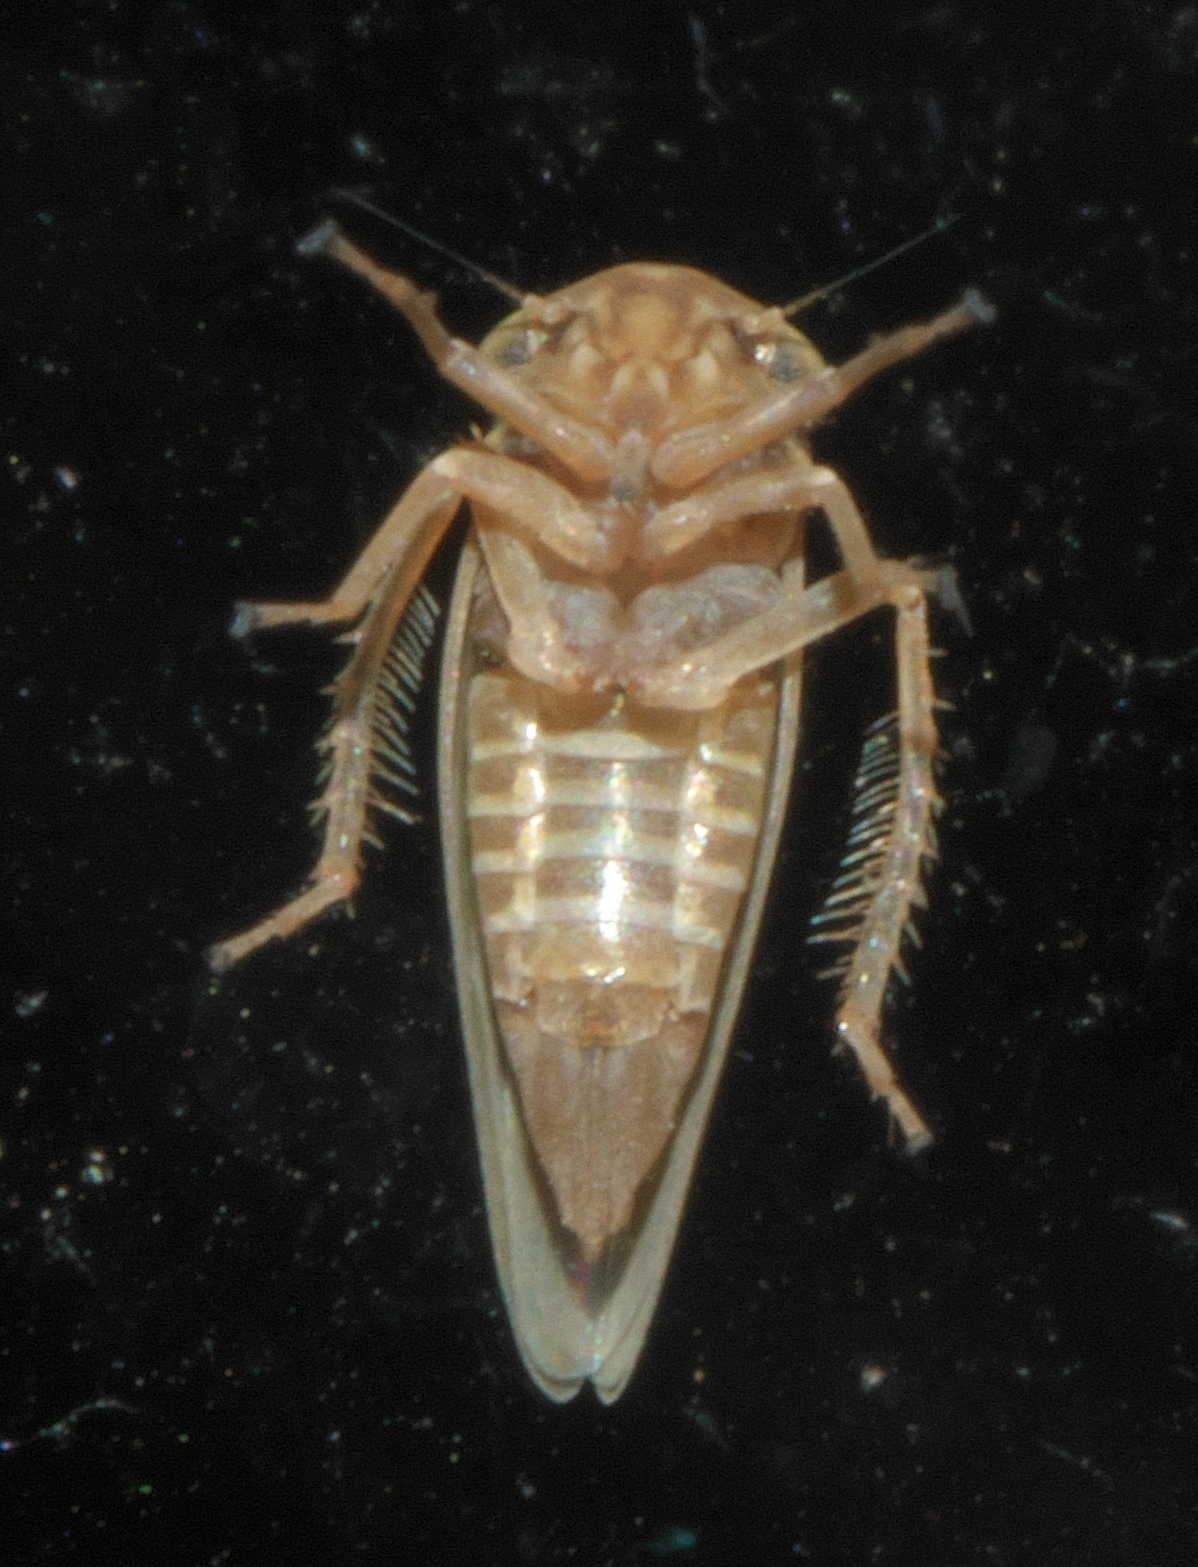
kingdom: Animalia
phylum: Arthropoda
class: Insecta
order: Hemiptera
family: Cicadellidae
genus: Agallia
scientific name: Agallia constricta
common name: The constricted leafhopper
